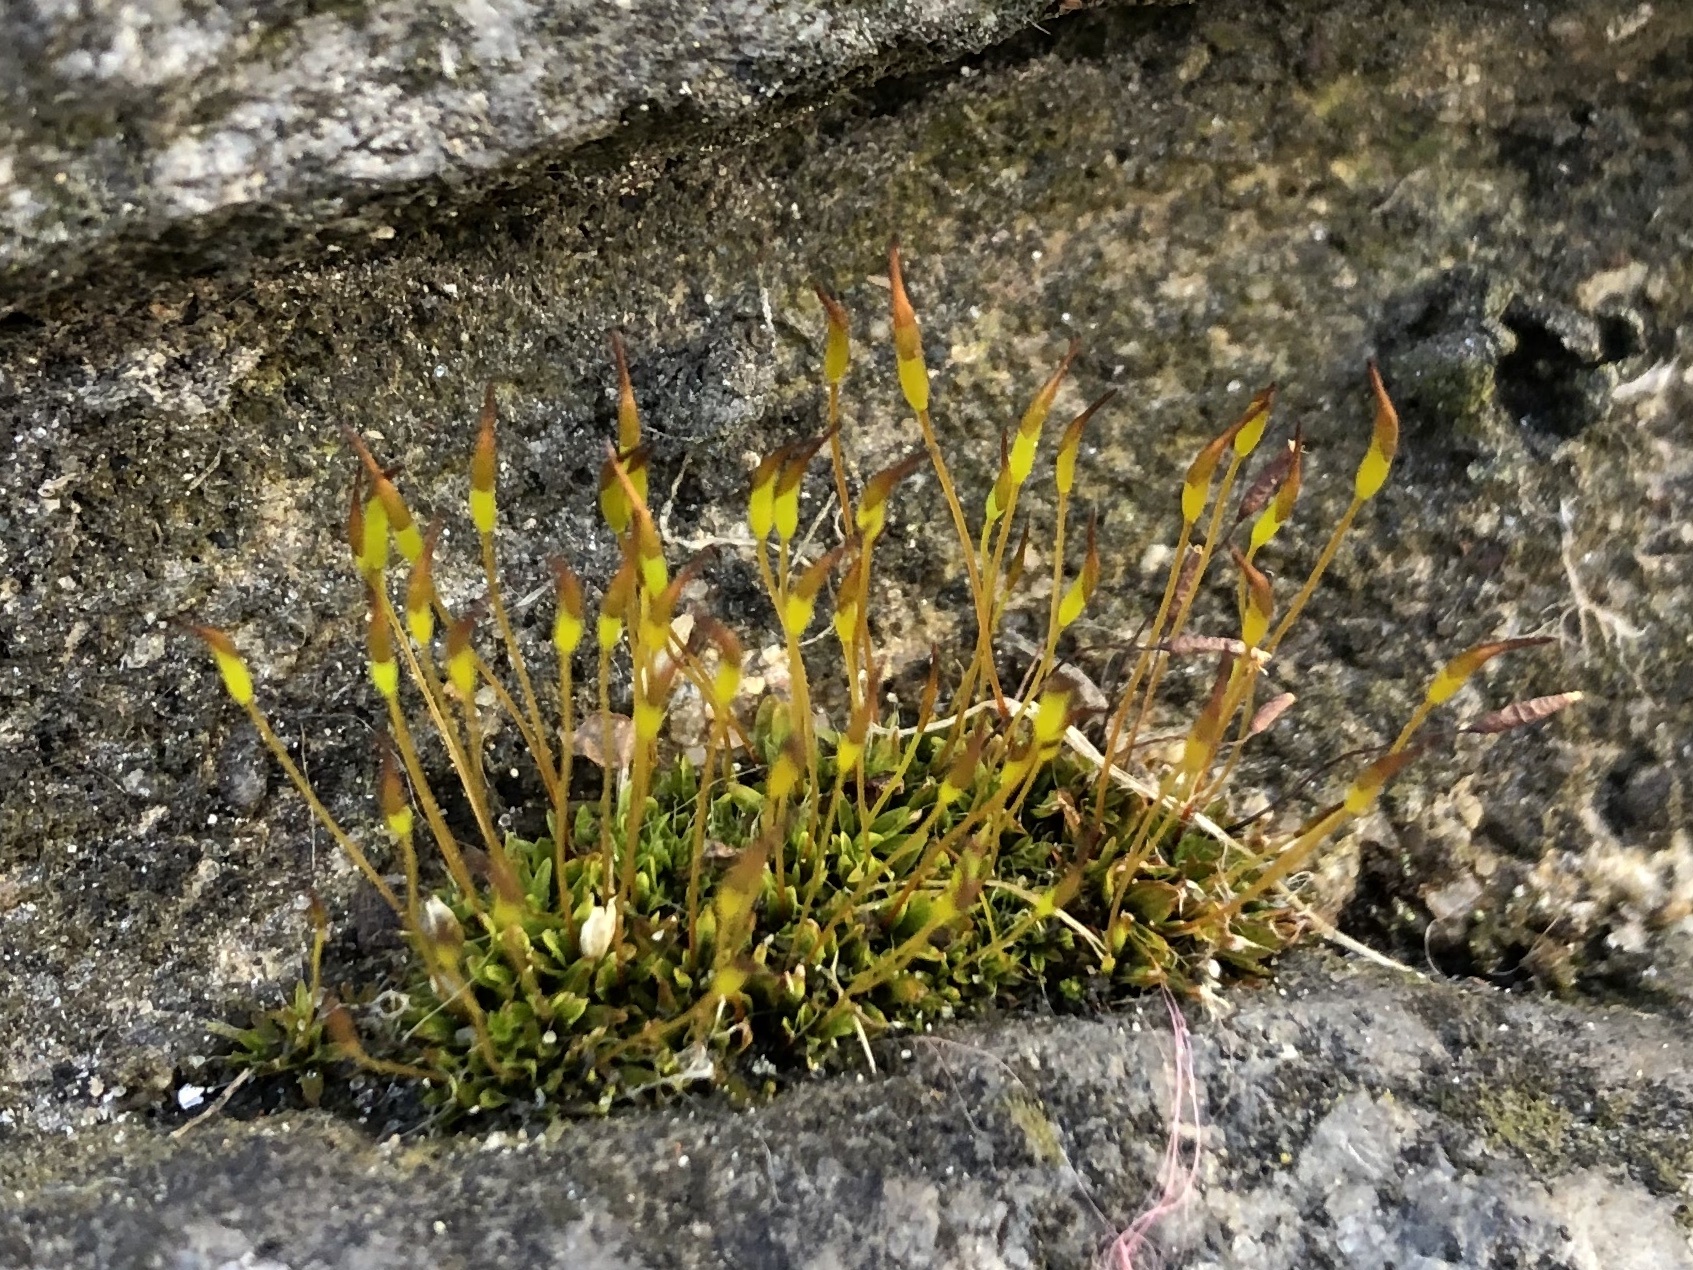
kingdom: Plantae
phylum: Bryophyta
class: Bryopsida
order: Pottiales
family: Pottiaceae
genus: Tortula
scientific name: Tortula muralis
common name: Wall screw-moss
